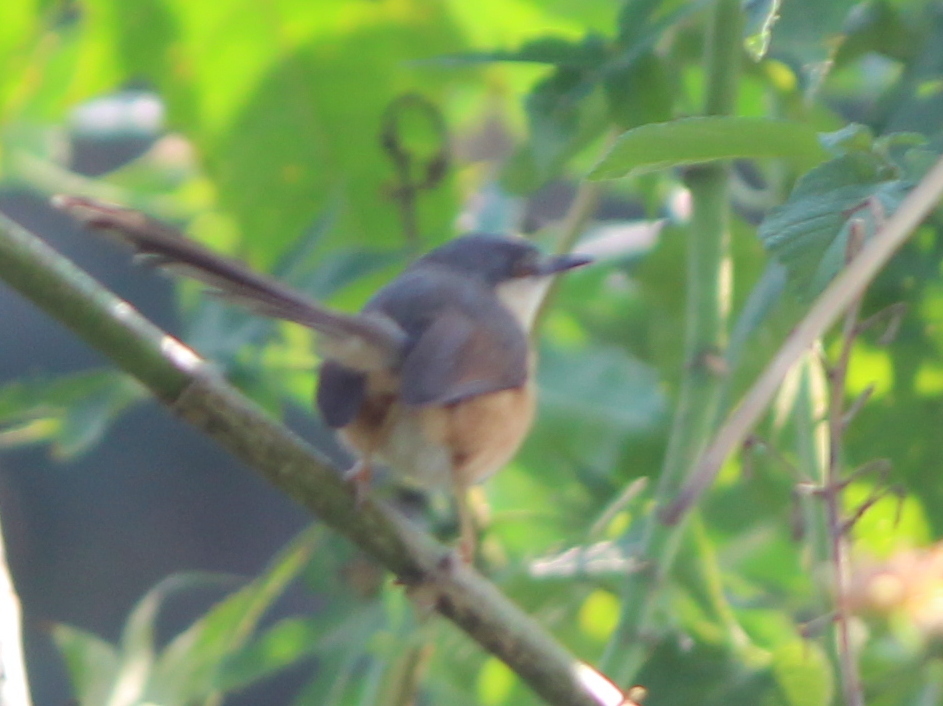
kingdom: Animalia
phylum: Chordata
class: Aves
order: Passeriformes
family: Cisticolidae
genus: Prinia
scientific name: Prinia socialis
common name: Ashy prinia
